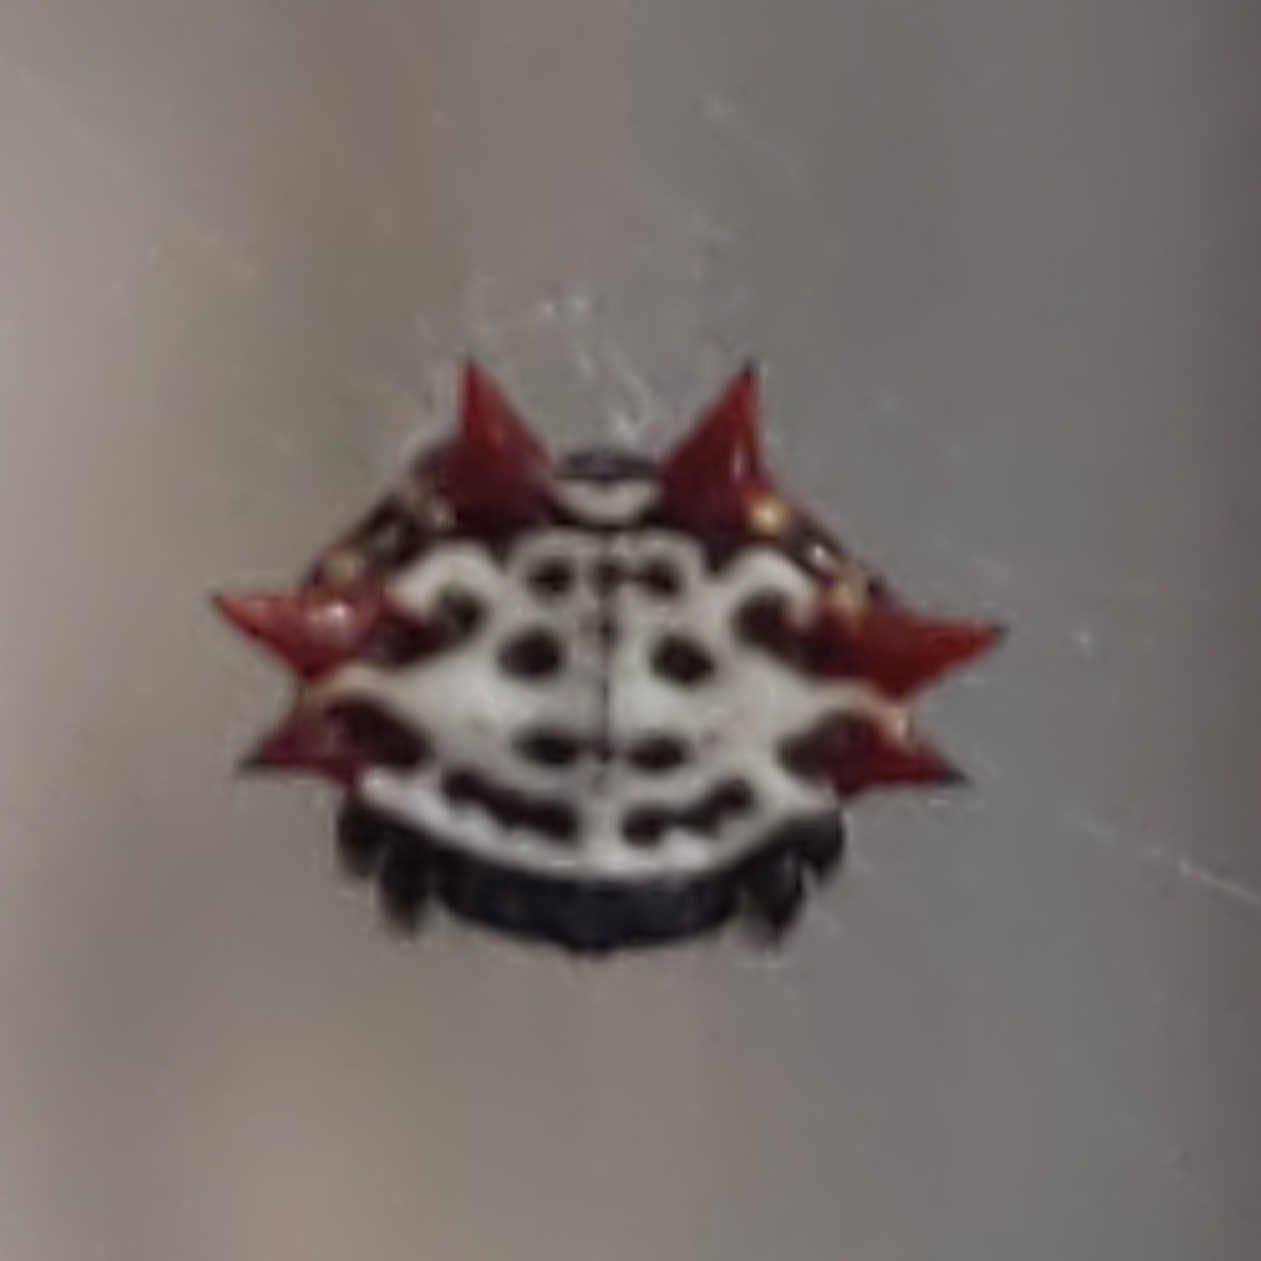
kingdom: Animalia
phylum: Arthropoda
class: Arachnida
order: Araneae
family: Araneidae
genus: Gasteracantha
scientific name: Gasteracantha cancriformis
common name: Orb weavers
